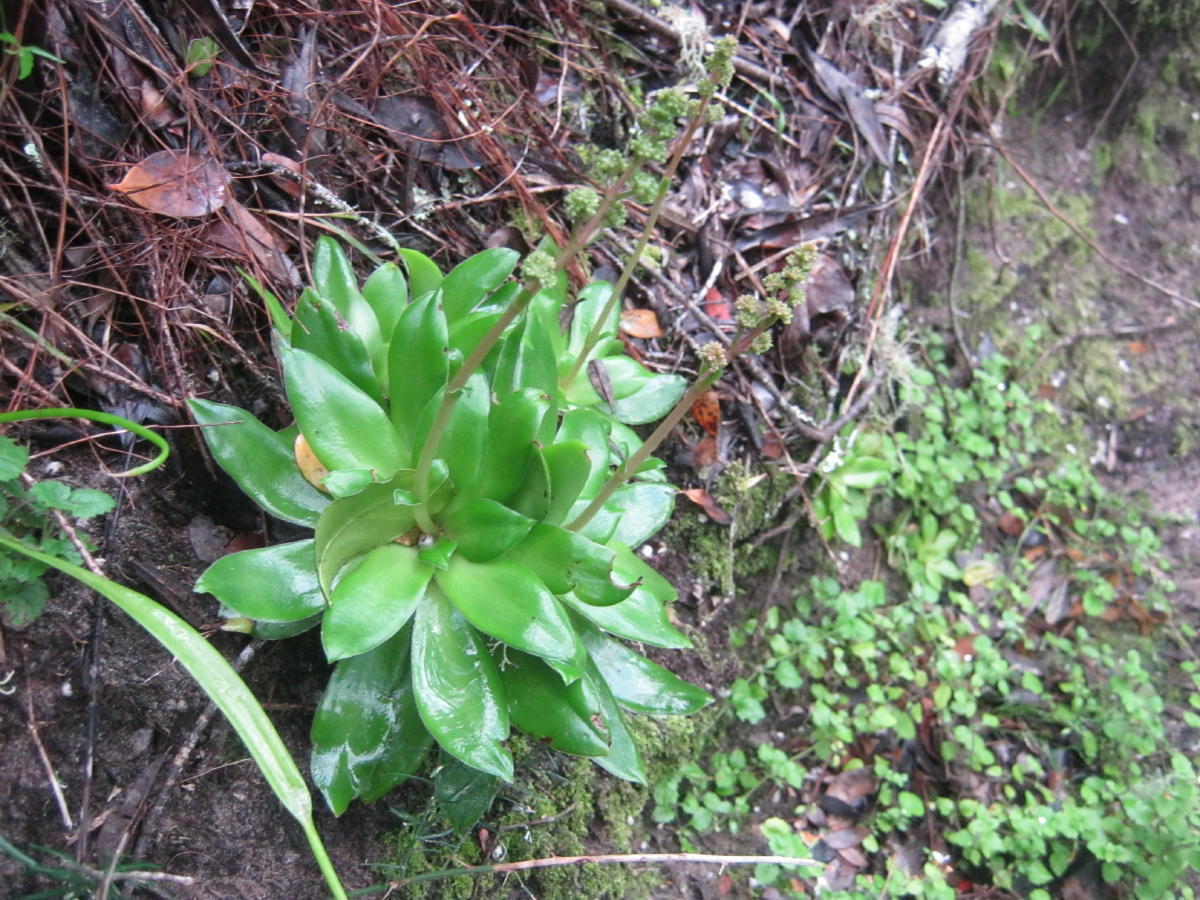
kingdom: Plantae
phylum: Tracheophyta
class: Magnoliopsida
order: Saxifragales
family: Crassulaceae
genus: Crassula
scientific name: Crassula orbicularis
